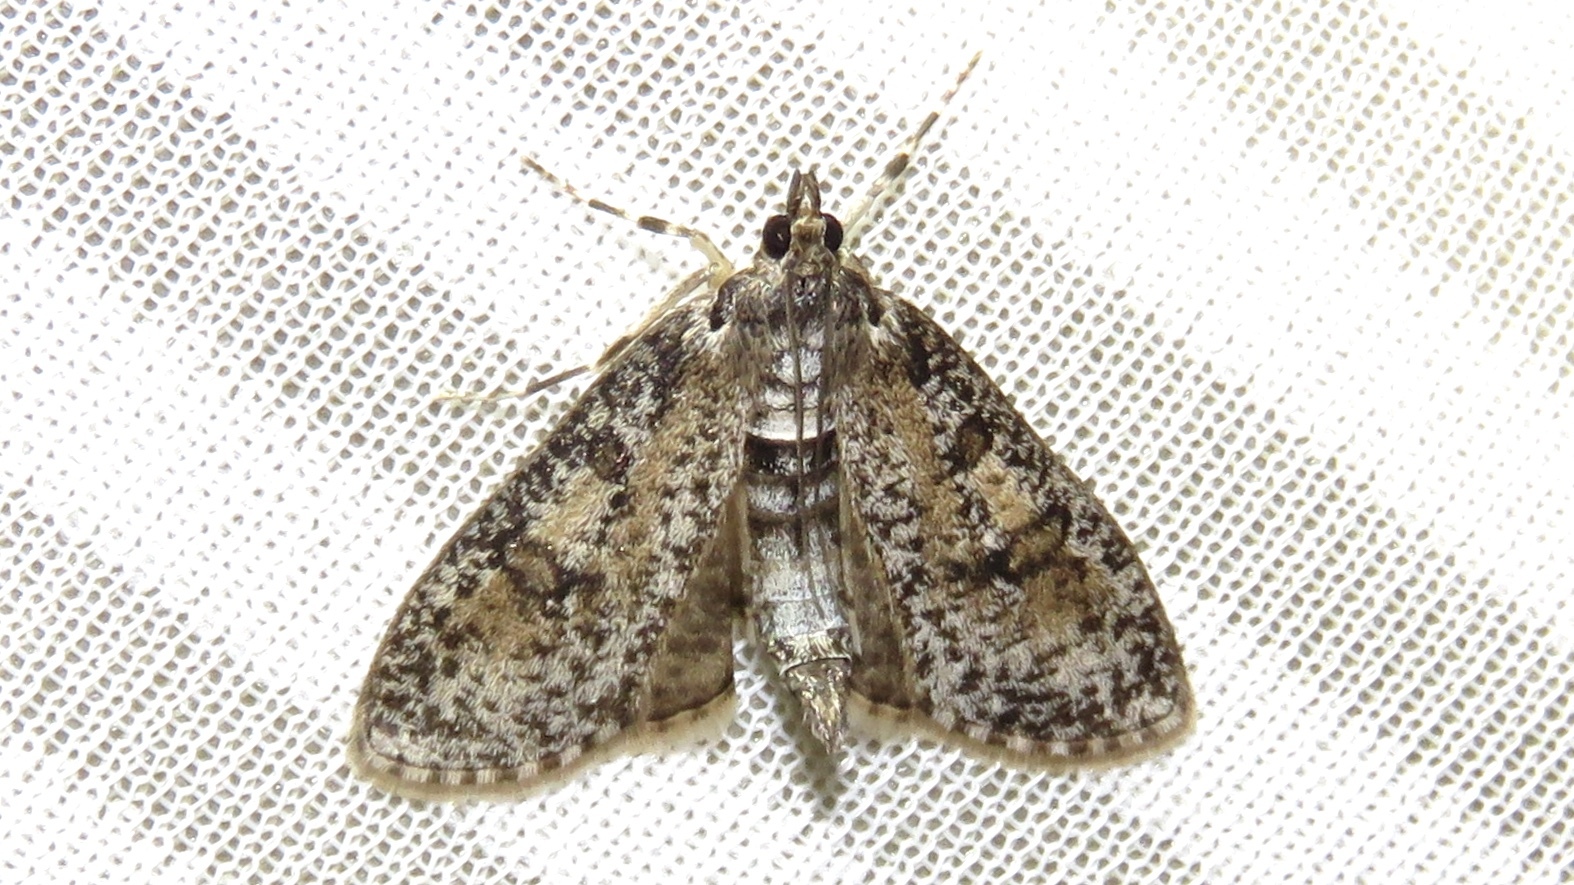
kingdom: Animalia
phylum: Arthropoda
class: Insecta
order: Lepidoptera
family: Crambidae
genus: Palpita
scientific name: Palpita aenescentalis
